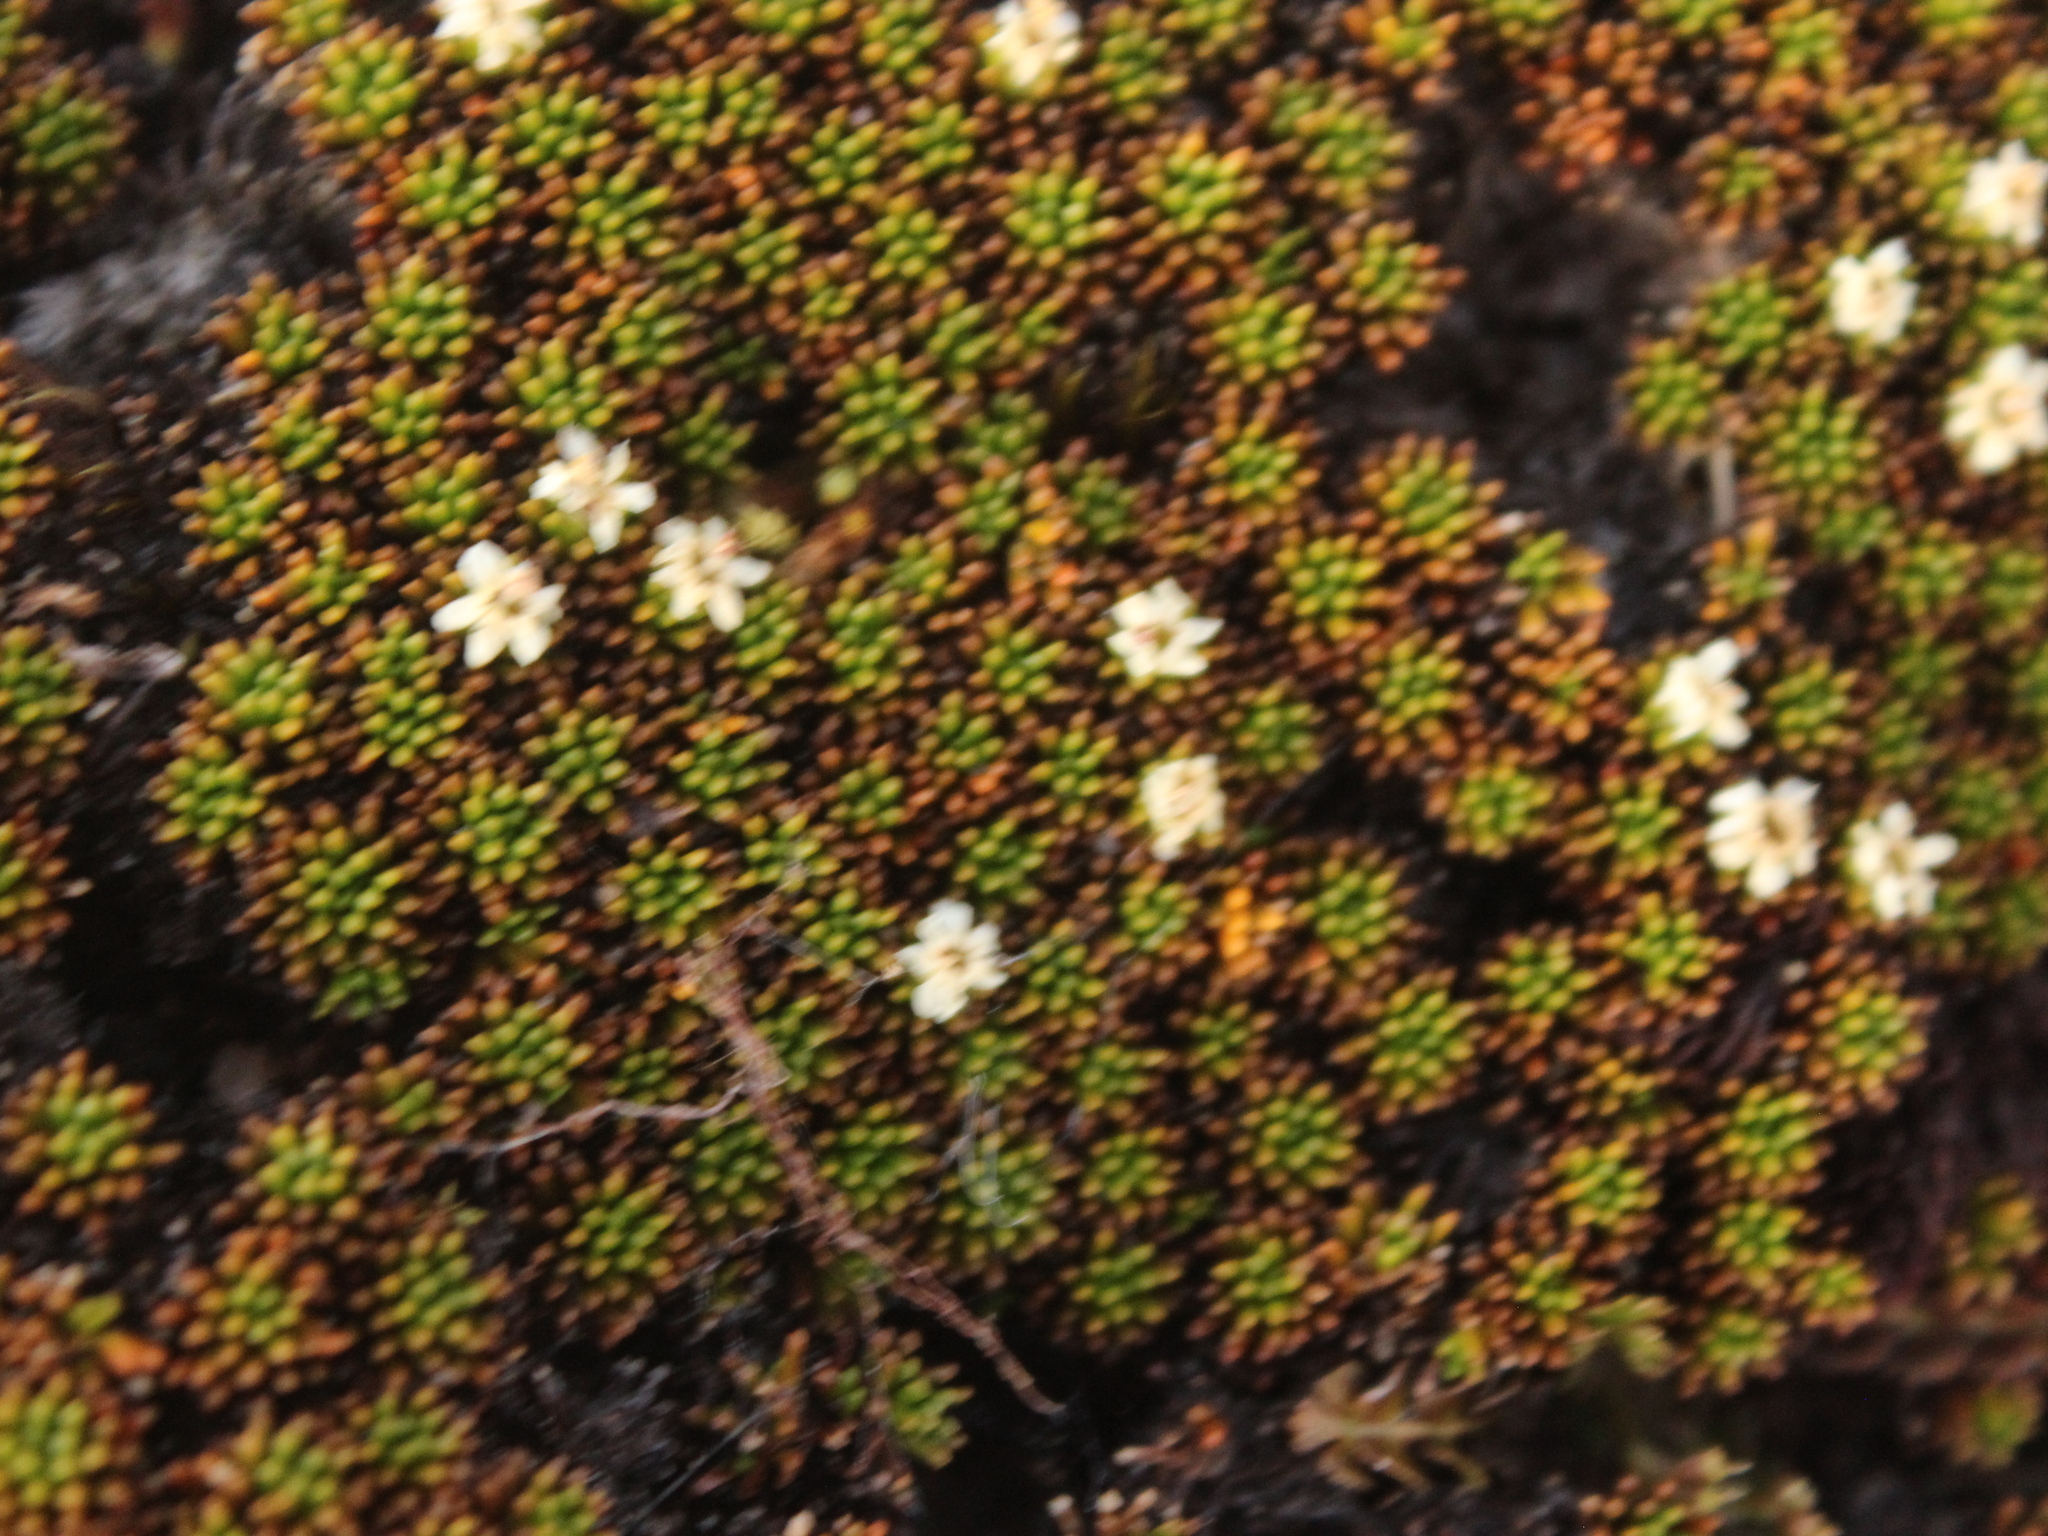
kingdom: Plantae
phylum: Tracheophyta
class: Magnoliopsida
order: Asterales
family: Stylidiaceae
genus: Phyllachne
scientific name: Phyllachne colensoi
